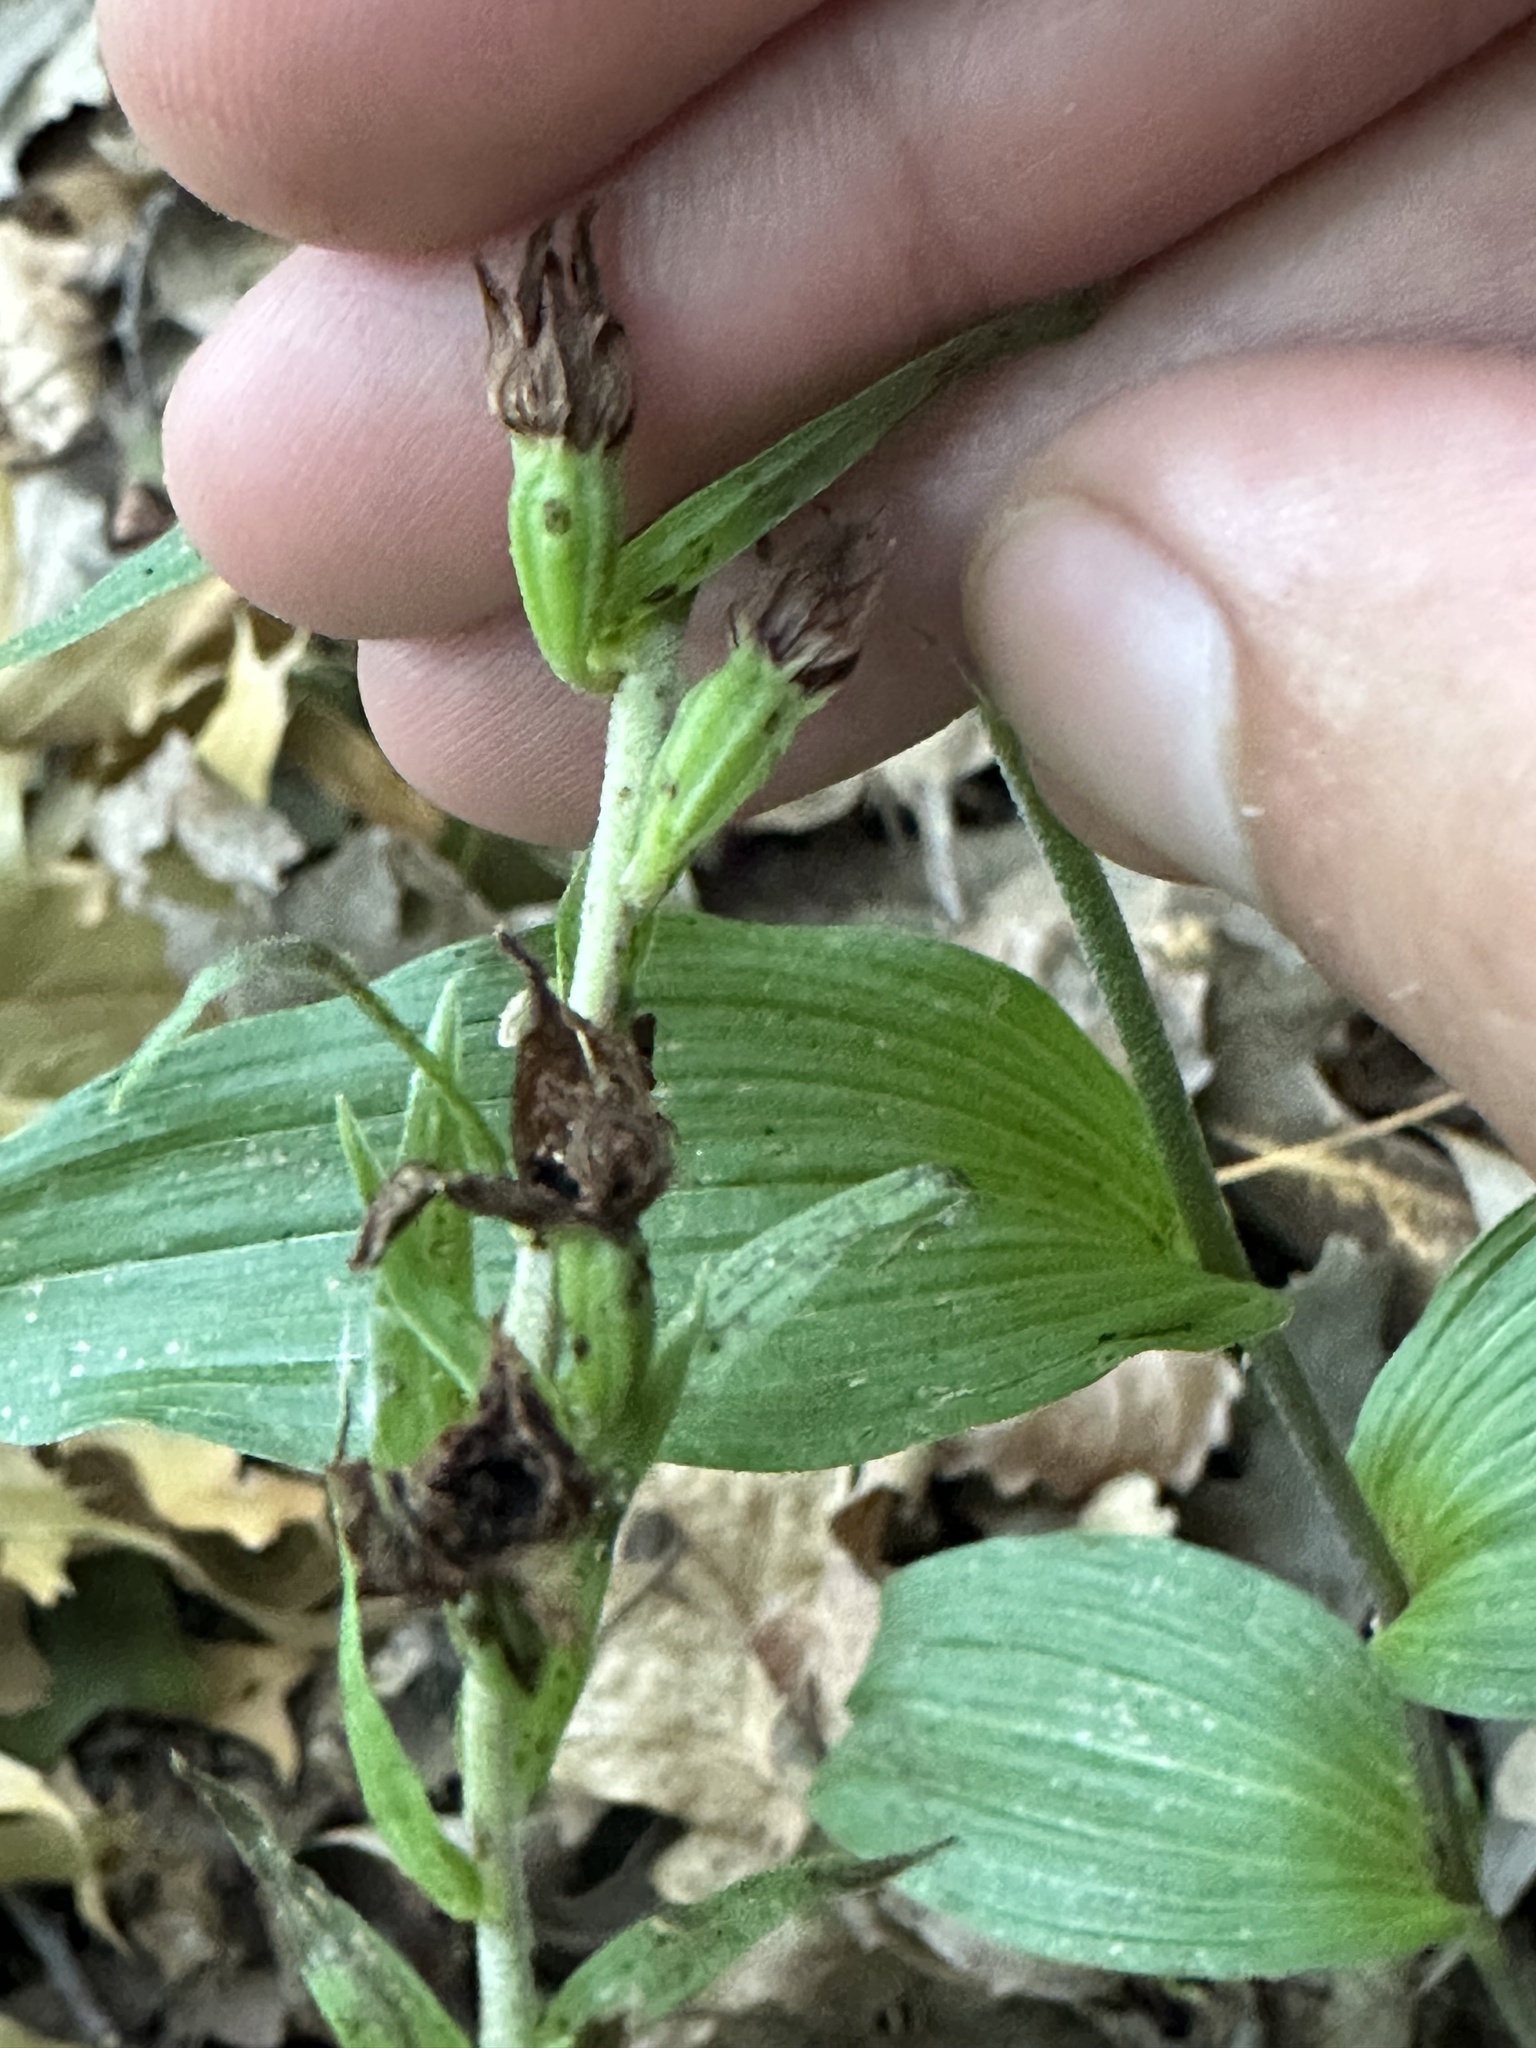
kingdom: Plantae
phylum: Tracheophyta
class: Liliopsida
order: Asparagales
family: Orchidaceae
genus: Epipactis
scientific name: Epipactis helleborine
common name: Broad-leaved helleborine
